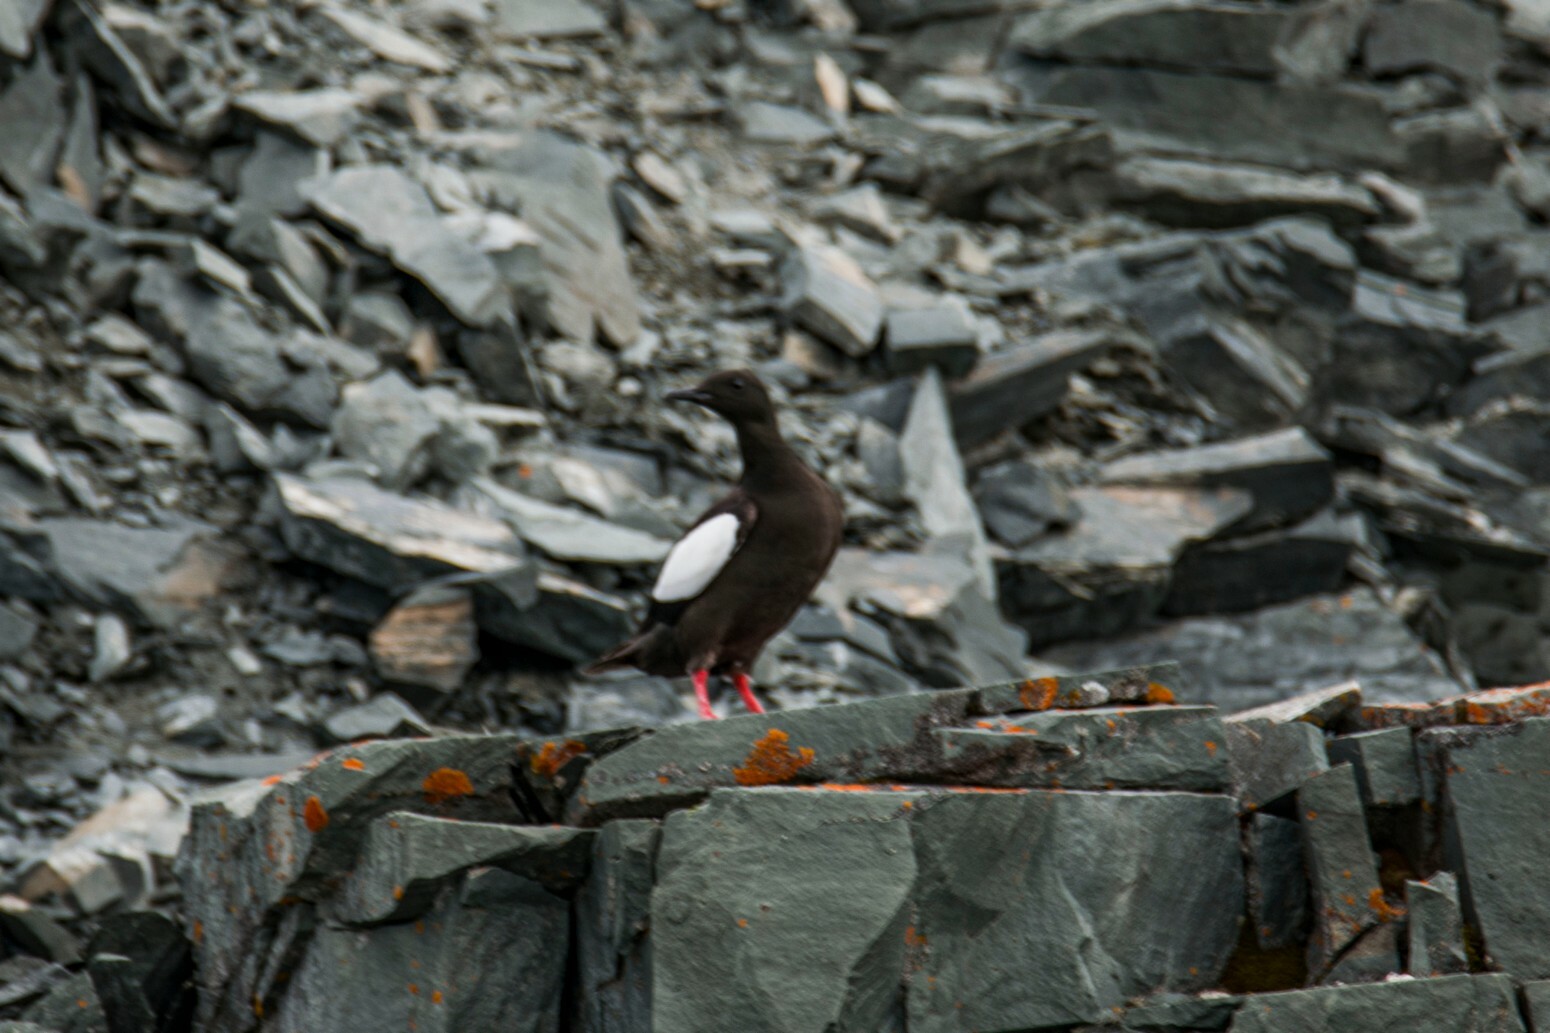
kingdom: Animalia
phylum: Chordata
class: Aves
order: Charadriiformes
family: Alcidae
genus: Cepphus
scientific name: Cepphus grylle
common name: Black guillemot
